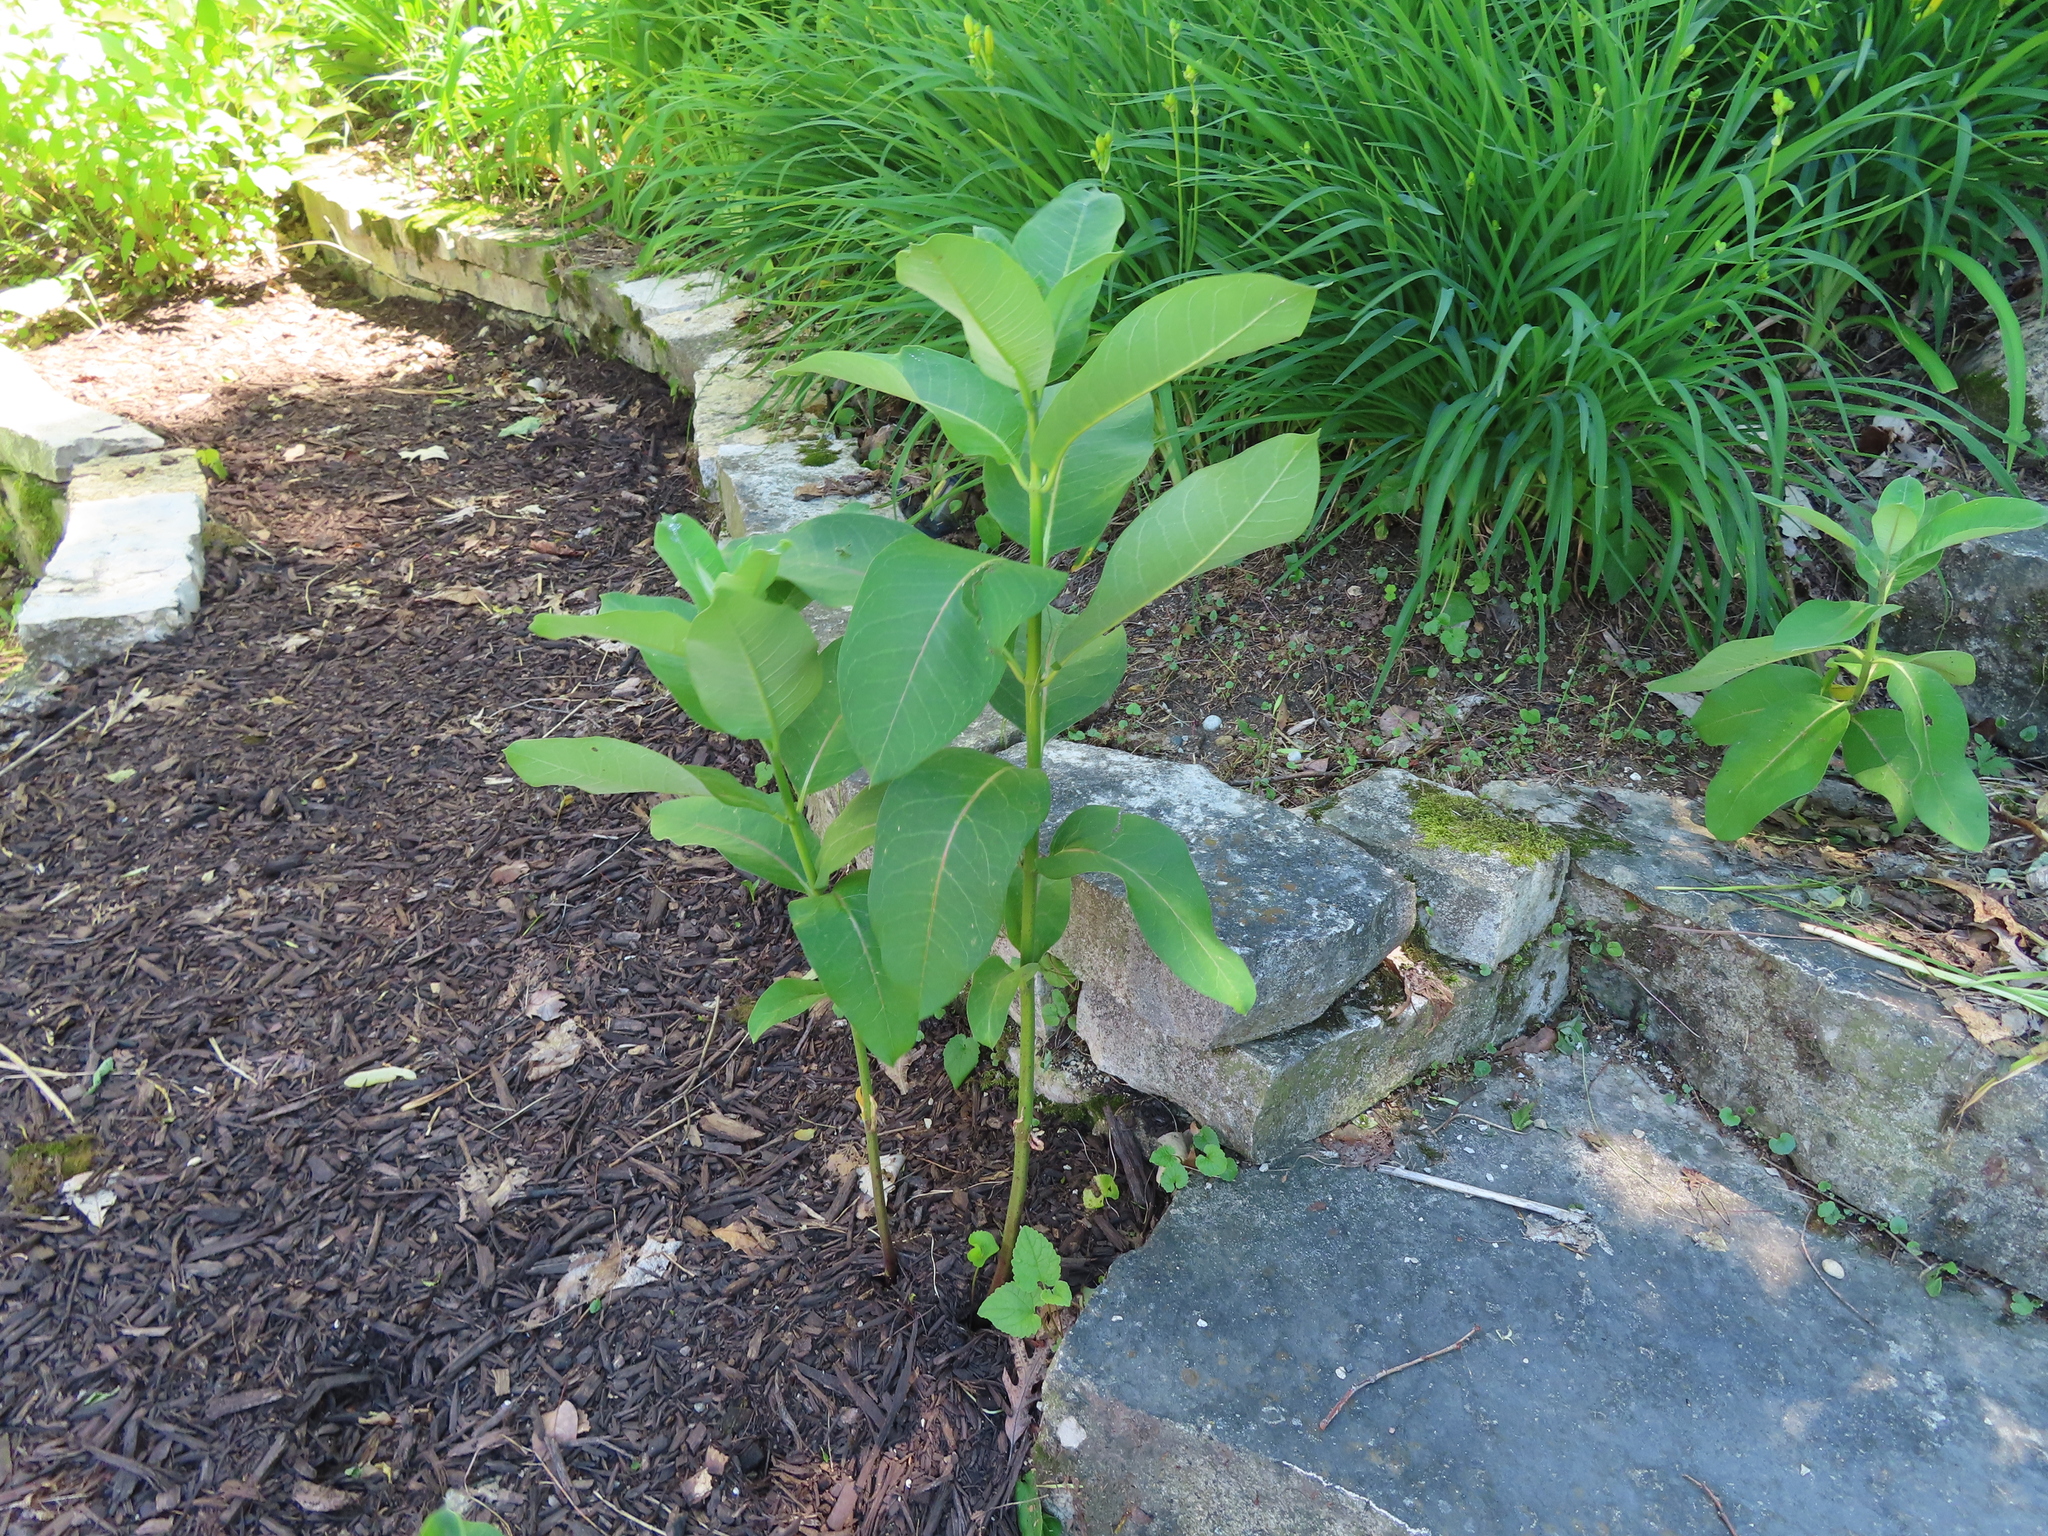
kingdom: Plantae
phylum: Tracheophyta
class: Magnoliopsida
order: Gentianales
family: Apocynaceae
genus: Asclepias
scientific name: Asclepias syriaca
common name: Common milkweed
